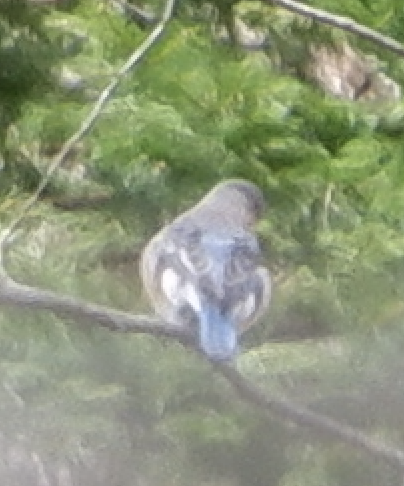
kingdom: Animalia
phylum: Chordata
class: Aves
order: Passeriformes
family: Turdidae
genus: Sialia
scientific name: Sialia sialis
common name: Eastern bluebird
